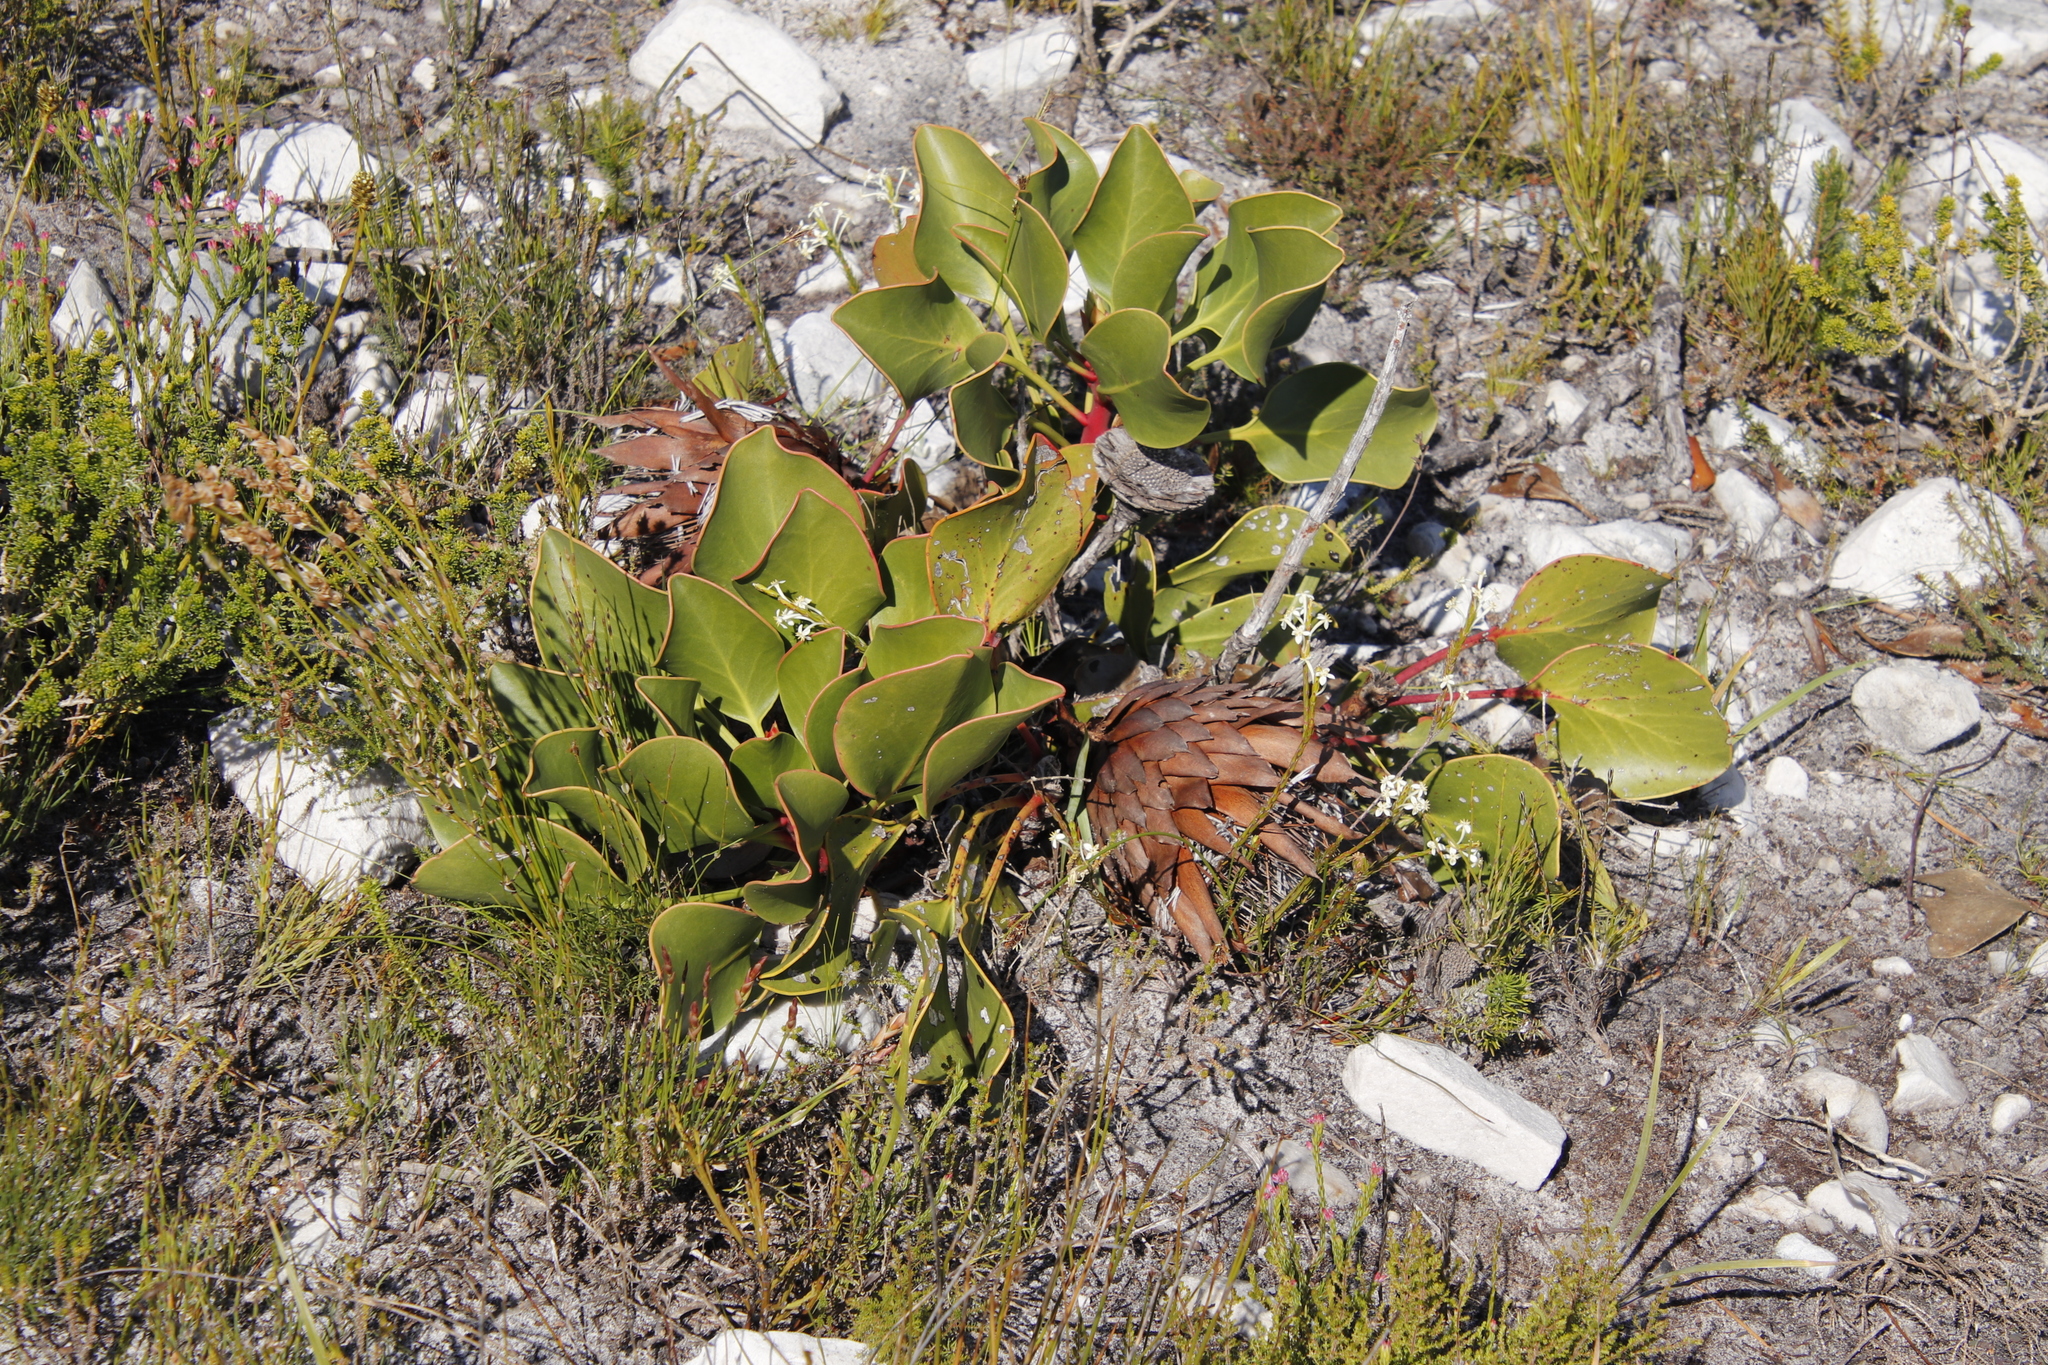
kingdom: Plantae
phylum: Tracheophyta
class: Magnoliopsida
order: Proteales
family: Proteaceae
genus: Protea
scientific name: Protea cynaroides
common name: King protea
